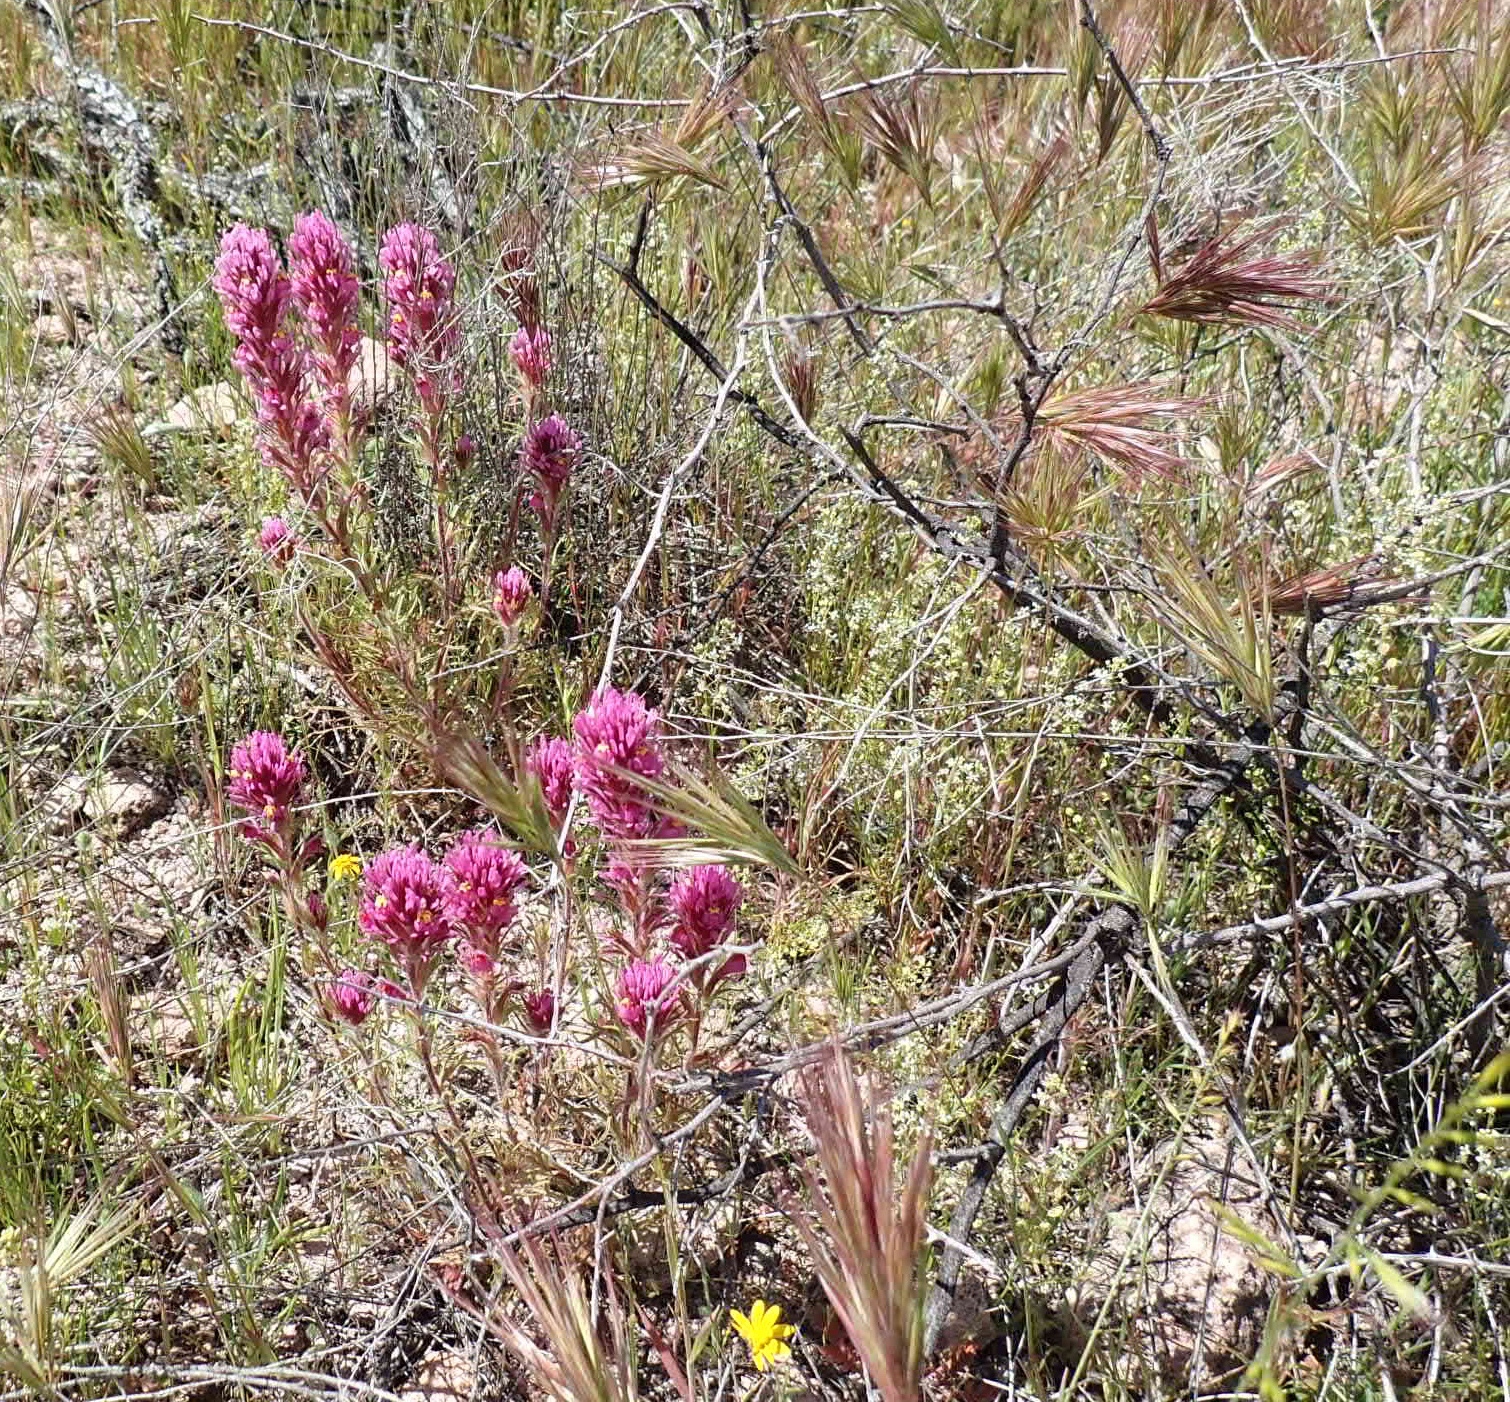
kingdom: Plantae
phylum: Tracheophyta
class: Magnoliopsida
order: Lamiales
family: Orobanchaceae
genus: Castilleja
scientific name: Castilleja exserta
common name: Purple owl-clover
